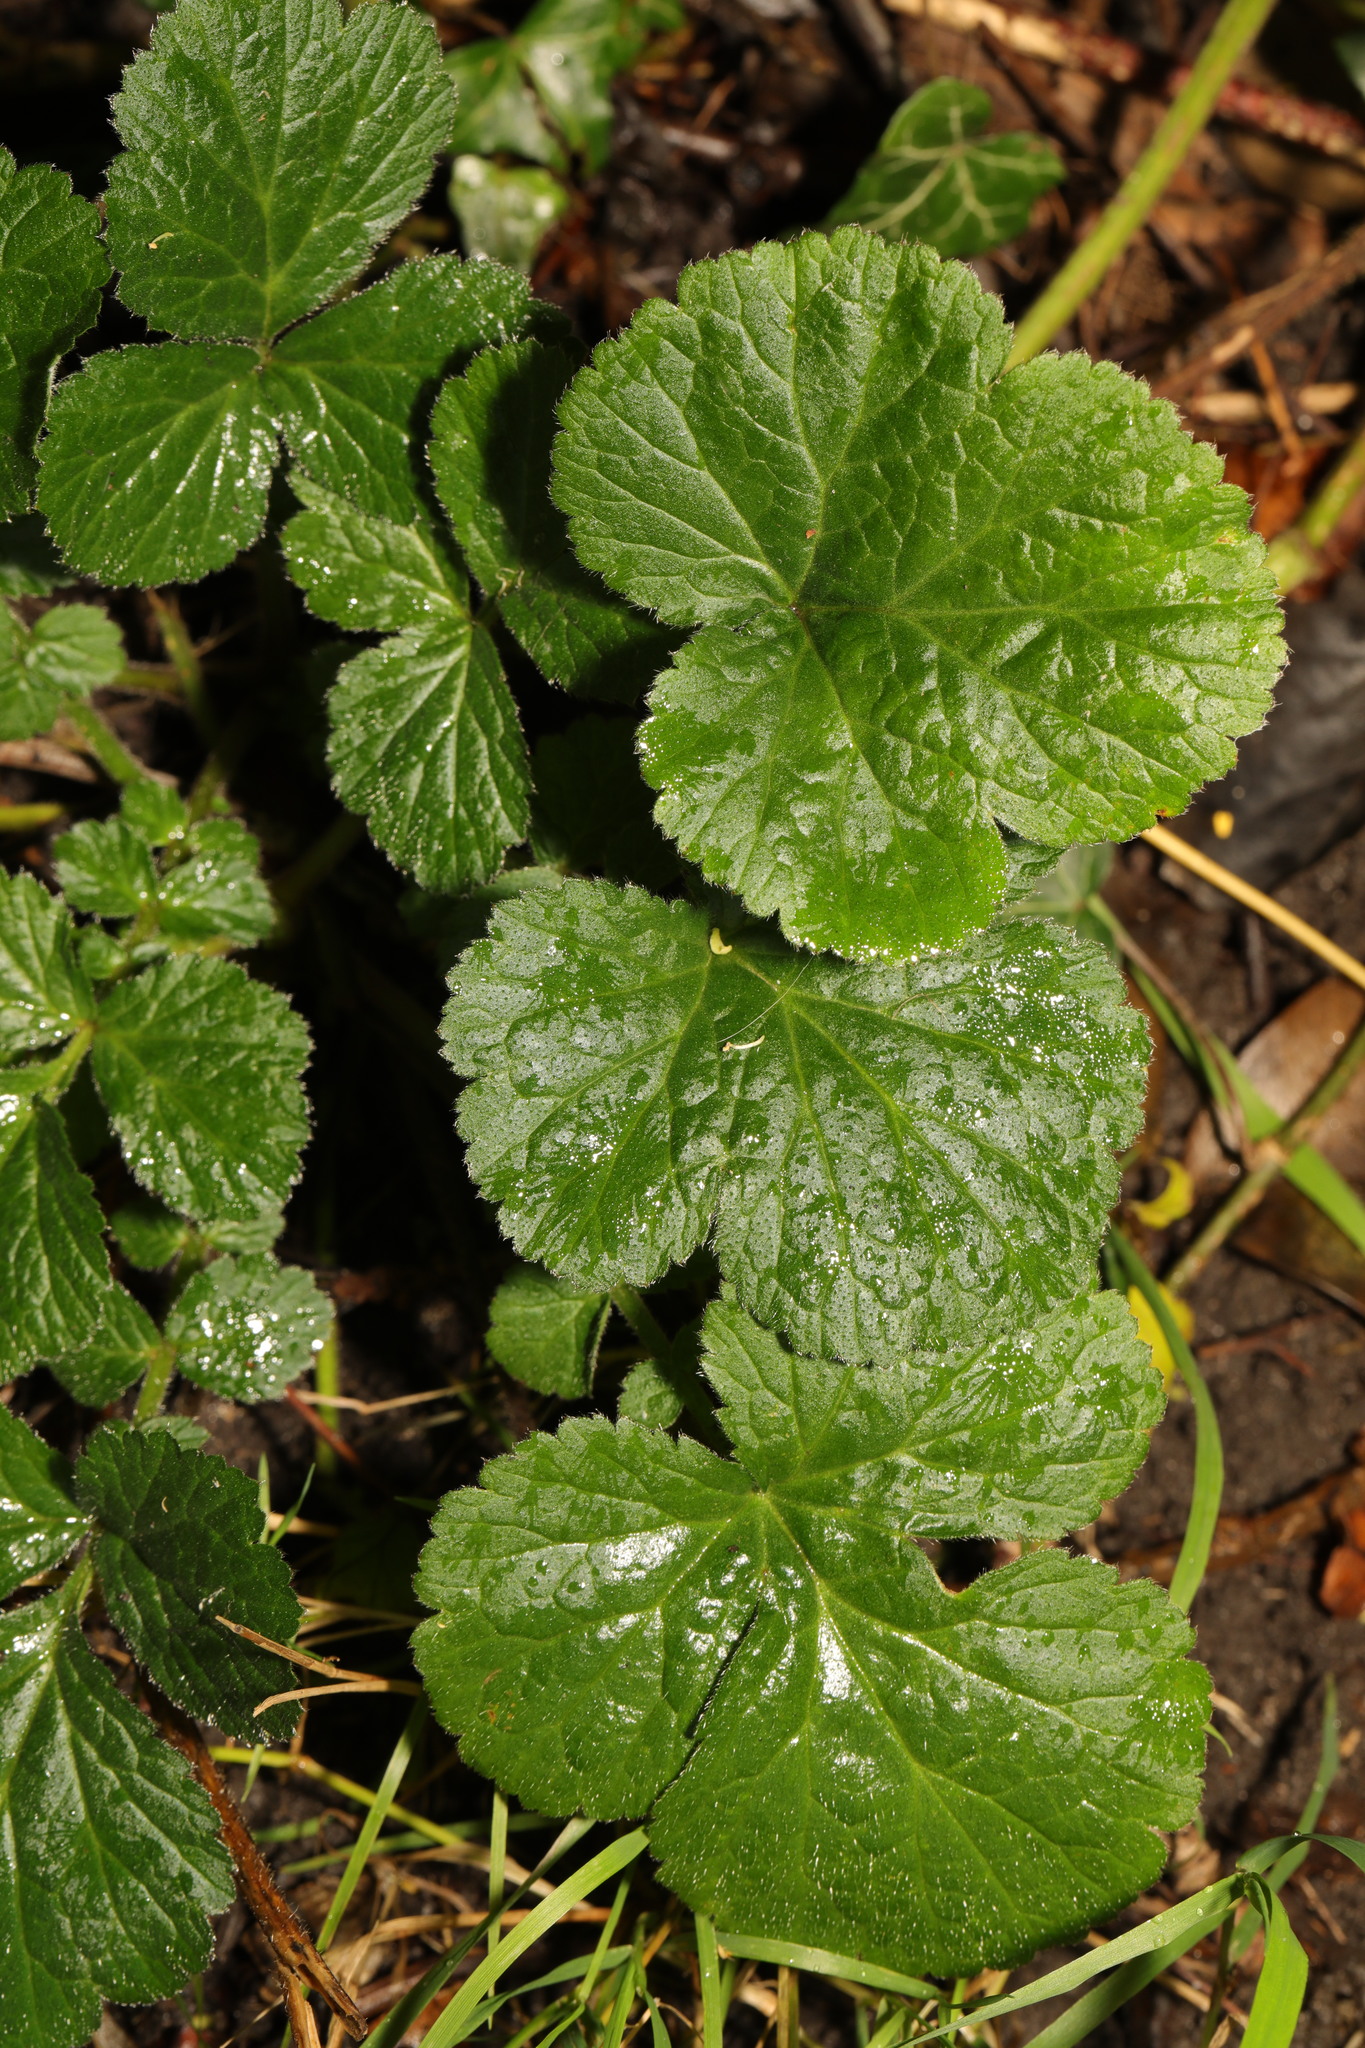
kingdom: Plantae
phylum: Tracheophyta
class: Magnoliopsida
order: Rosales
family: Rosaceae
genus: Geum
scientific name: Geum urbanum
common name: Wood avens
